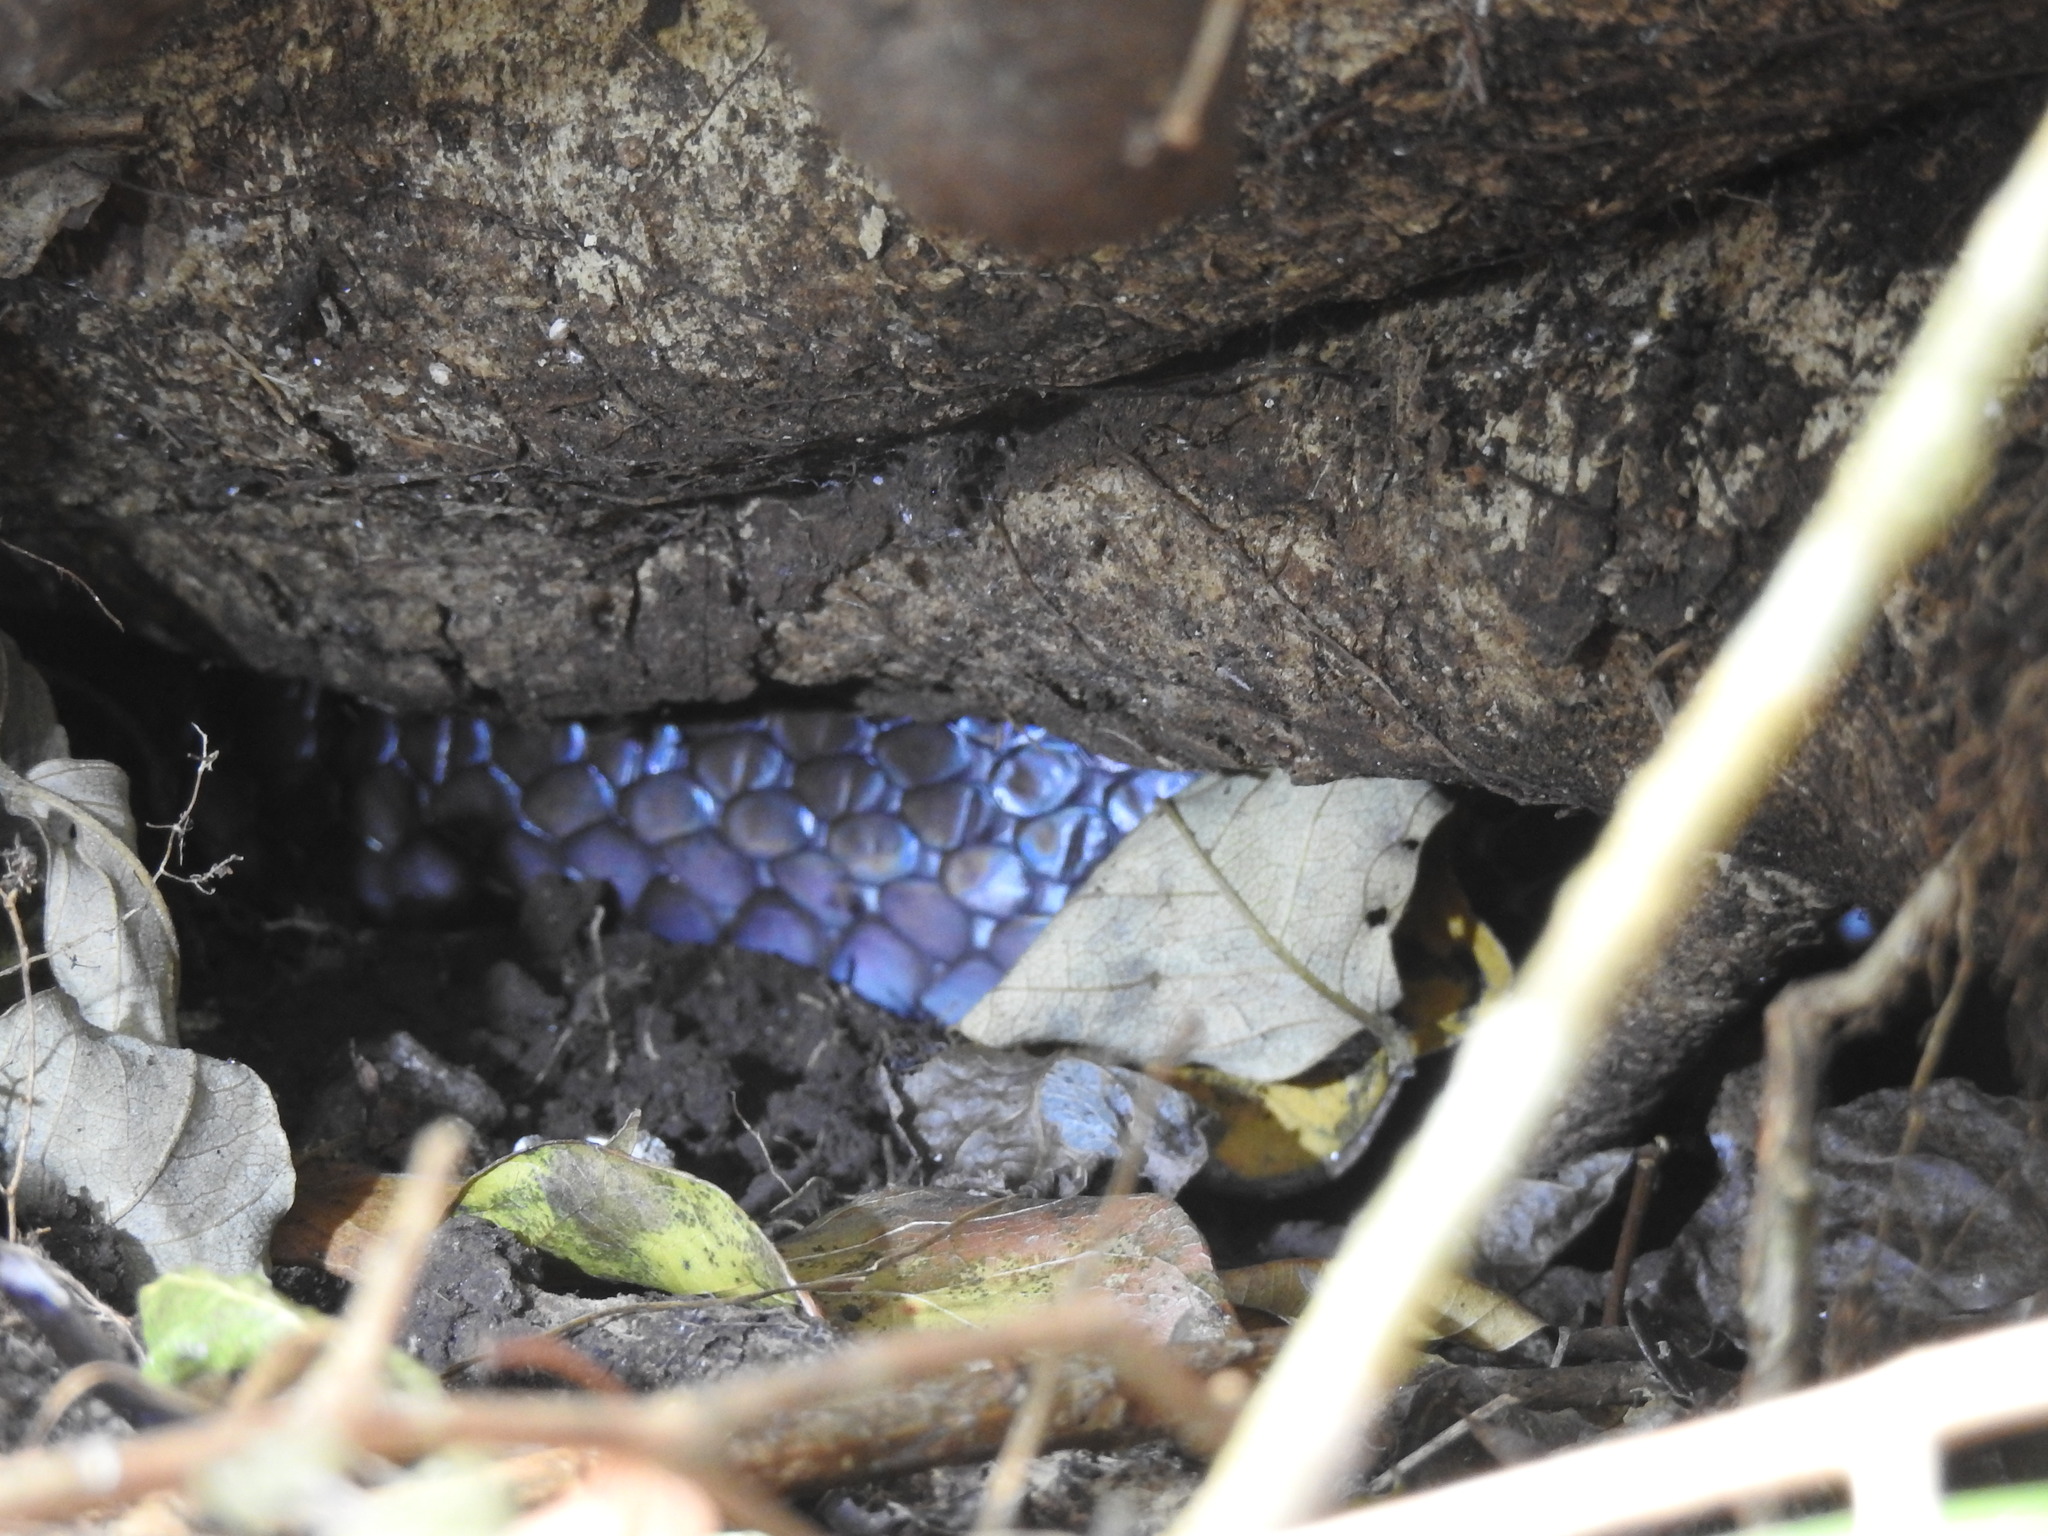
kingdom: Animalia
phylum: Chordata
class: Squamata
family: Colubridae
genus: Drymarchon
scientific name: Drymarchon melanurus
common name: Central american indigo snake
